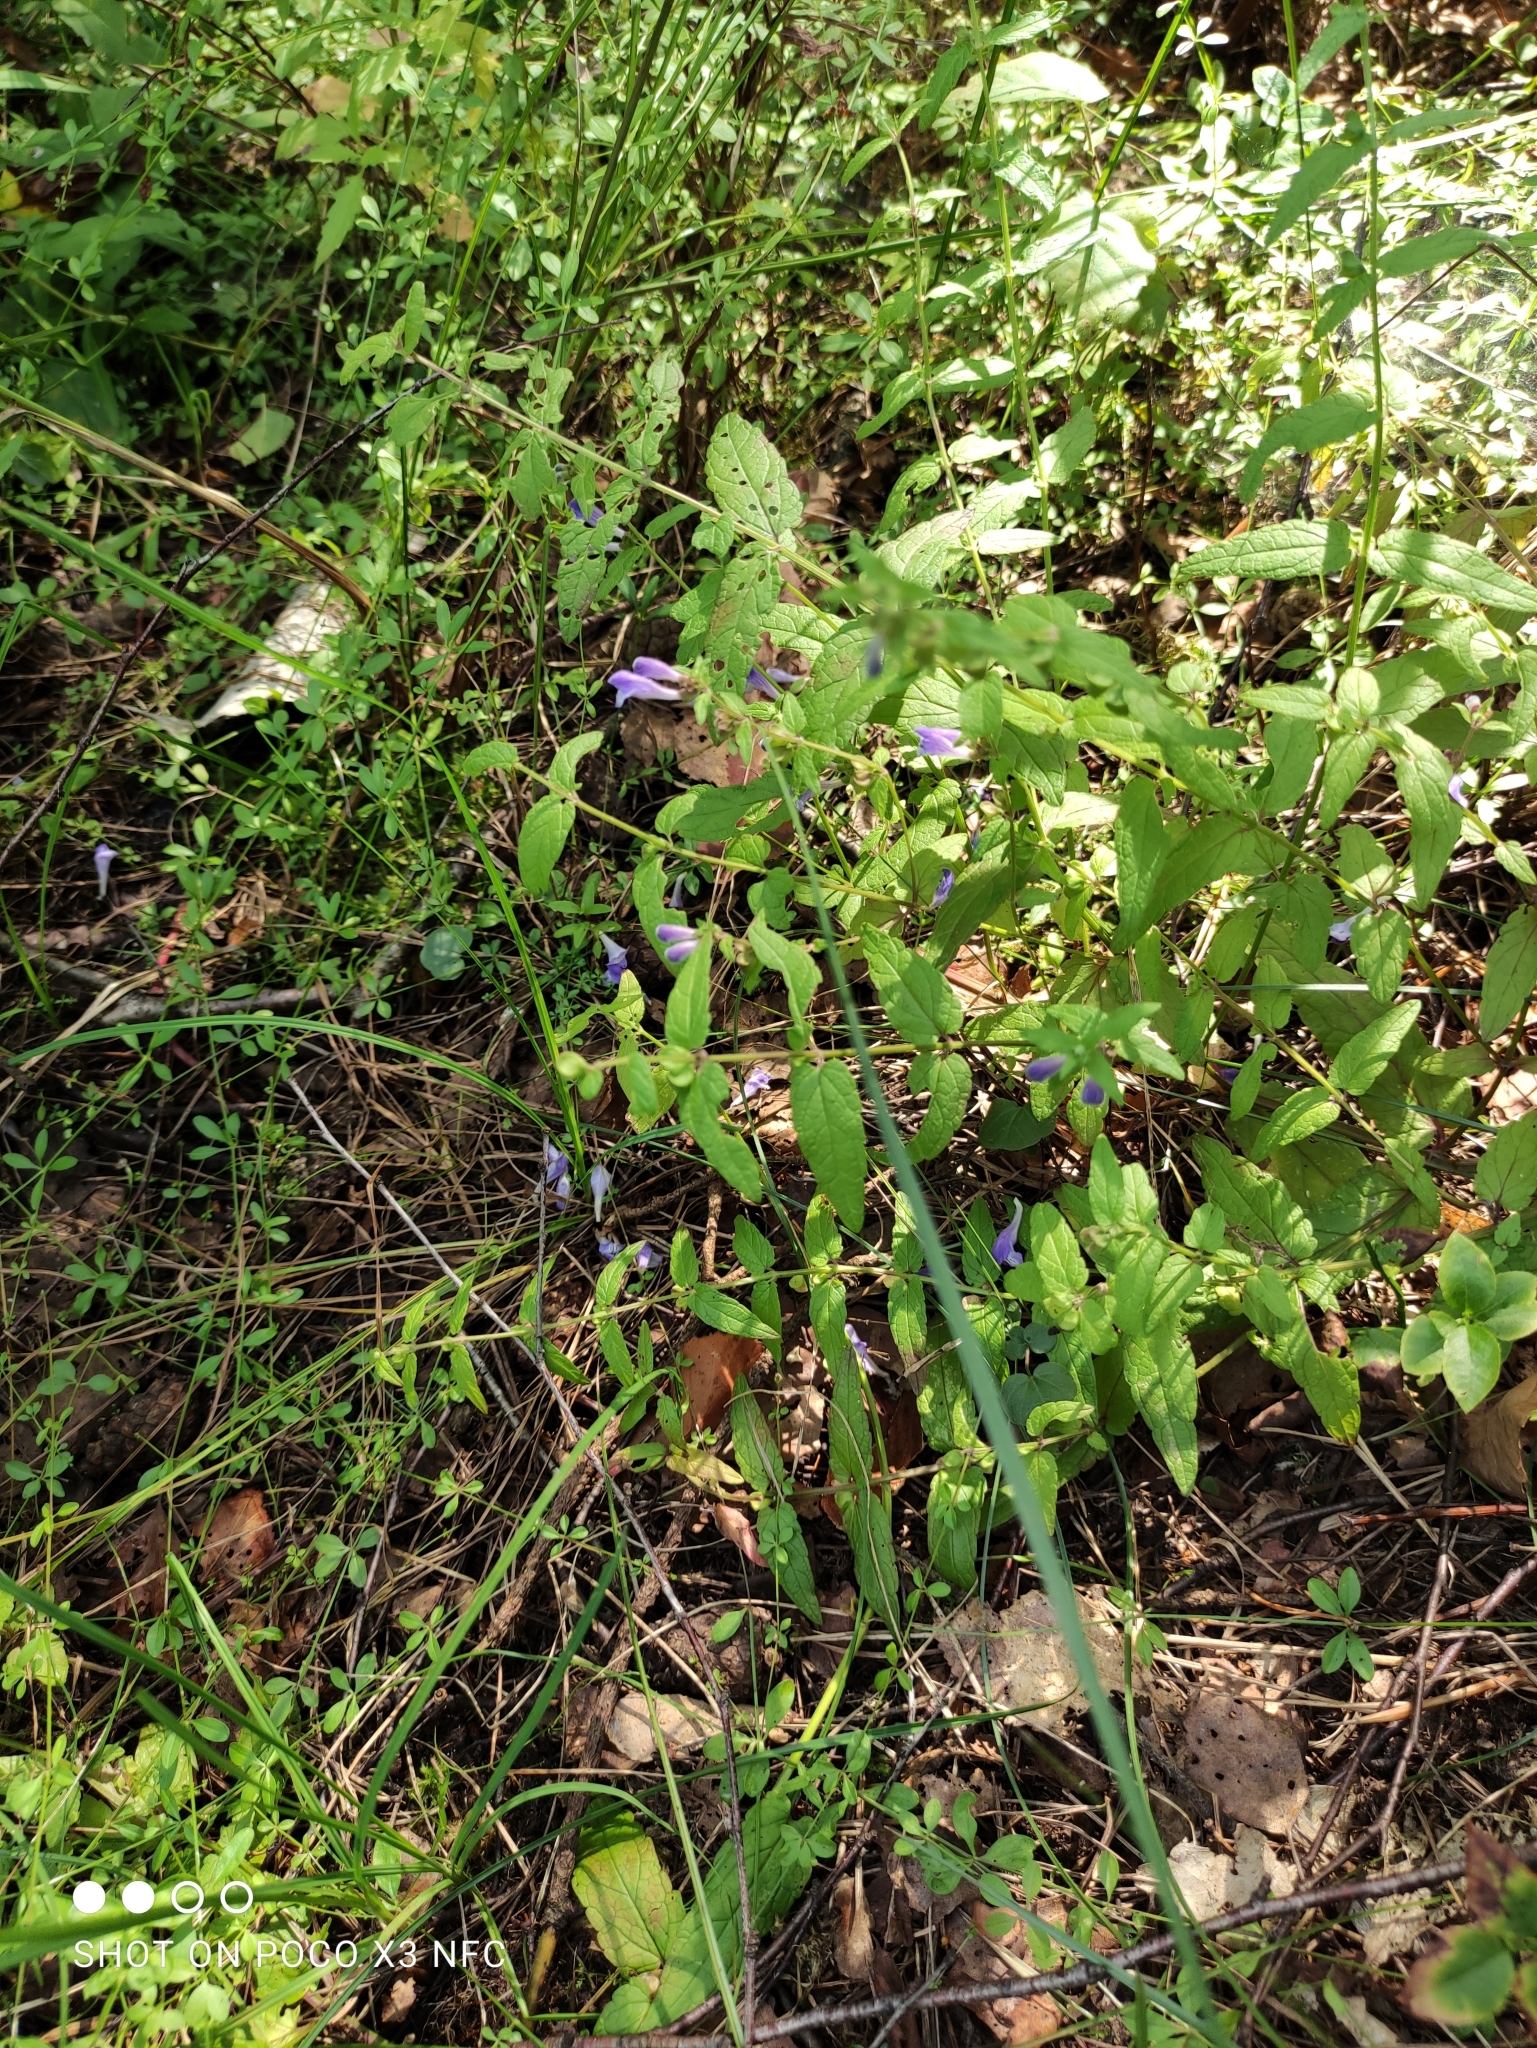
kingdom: Plantae
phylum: Tracheophyta
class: Magnoliopsida
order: Lamiales
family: Lamiaceae
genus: Scutellaria
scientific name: Scutellaria galericulata
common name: Skullcap
